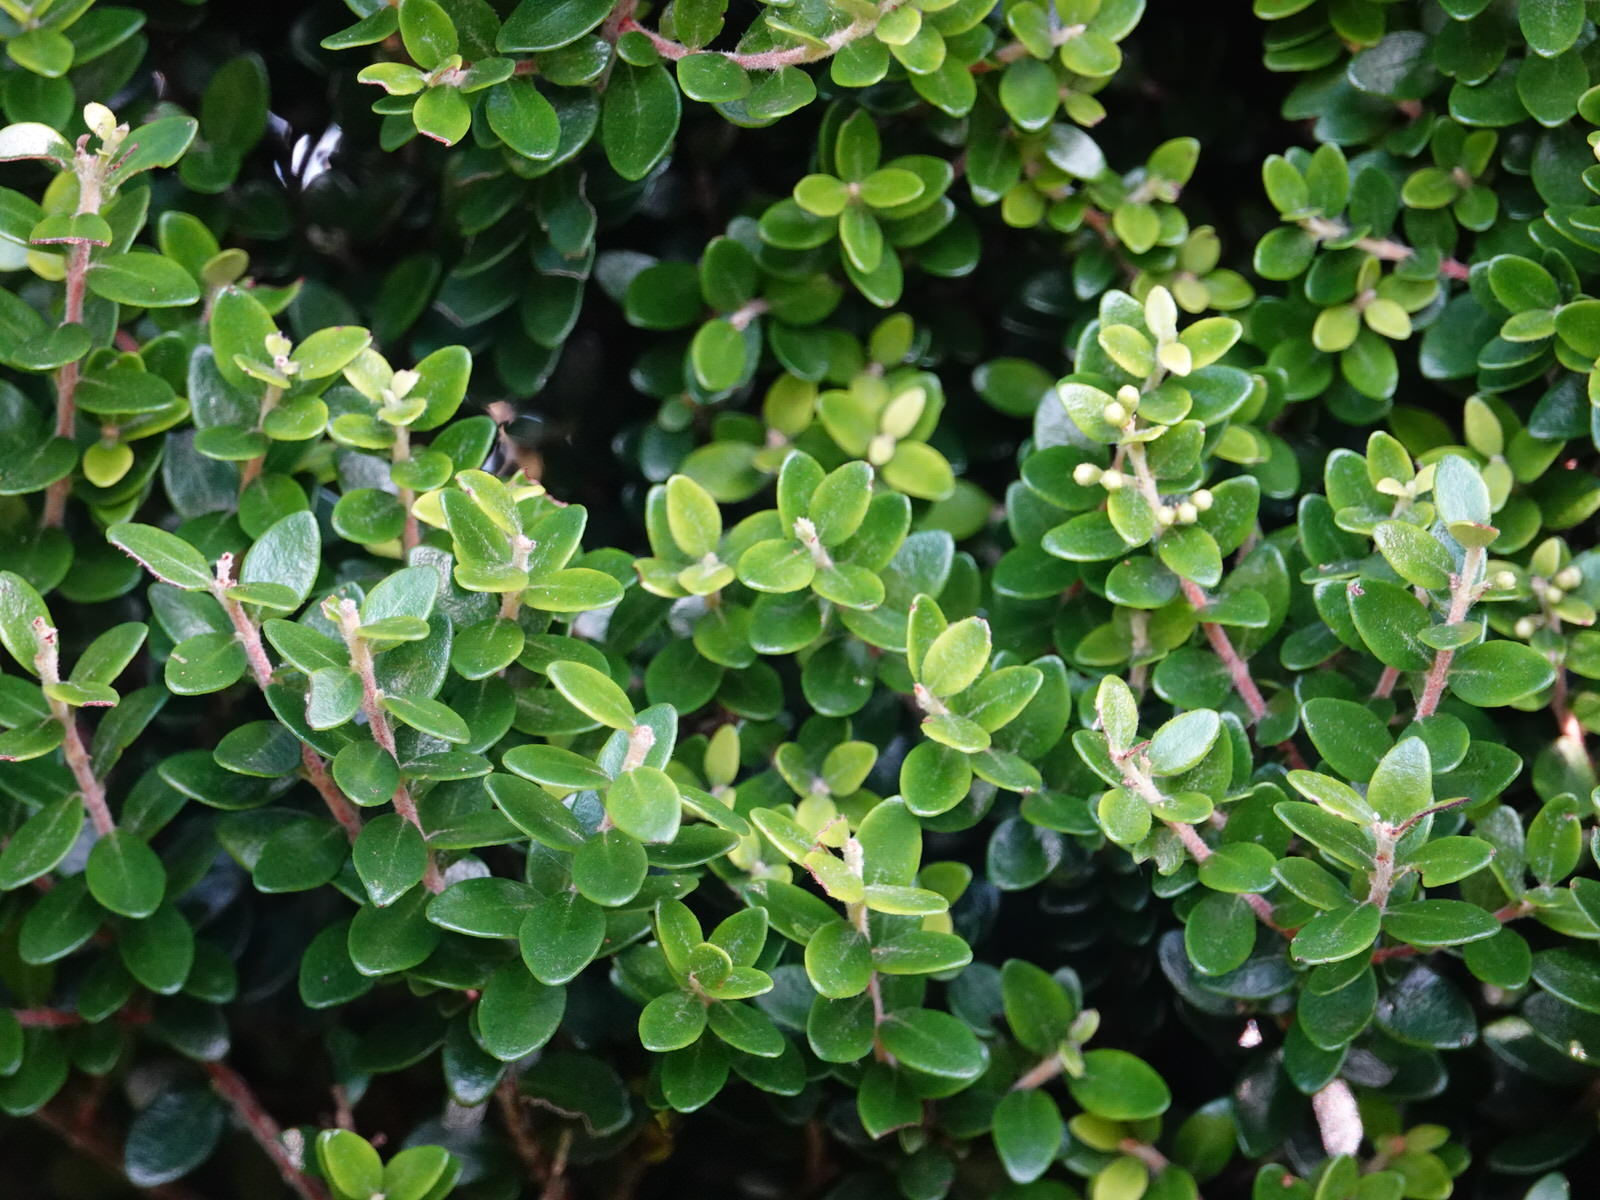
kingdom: Plantae
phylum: Tracheophyta
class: Magnoliopsida
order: Myrtales
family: Myrtaceae
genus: Metrosideros
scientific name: Metrosideros perforata
